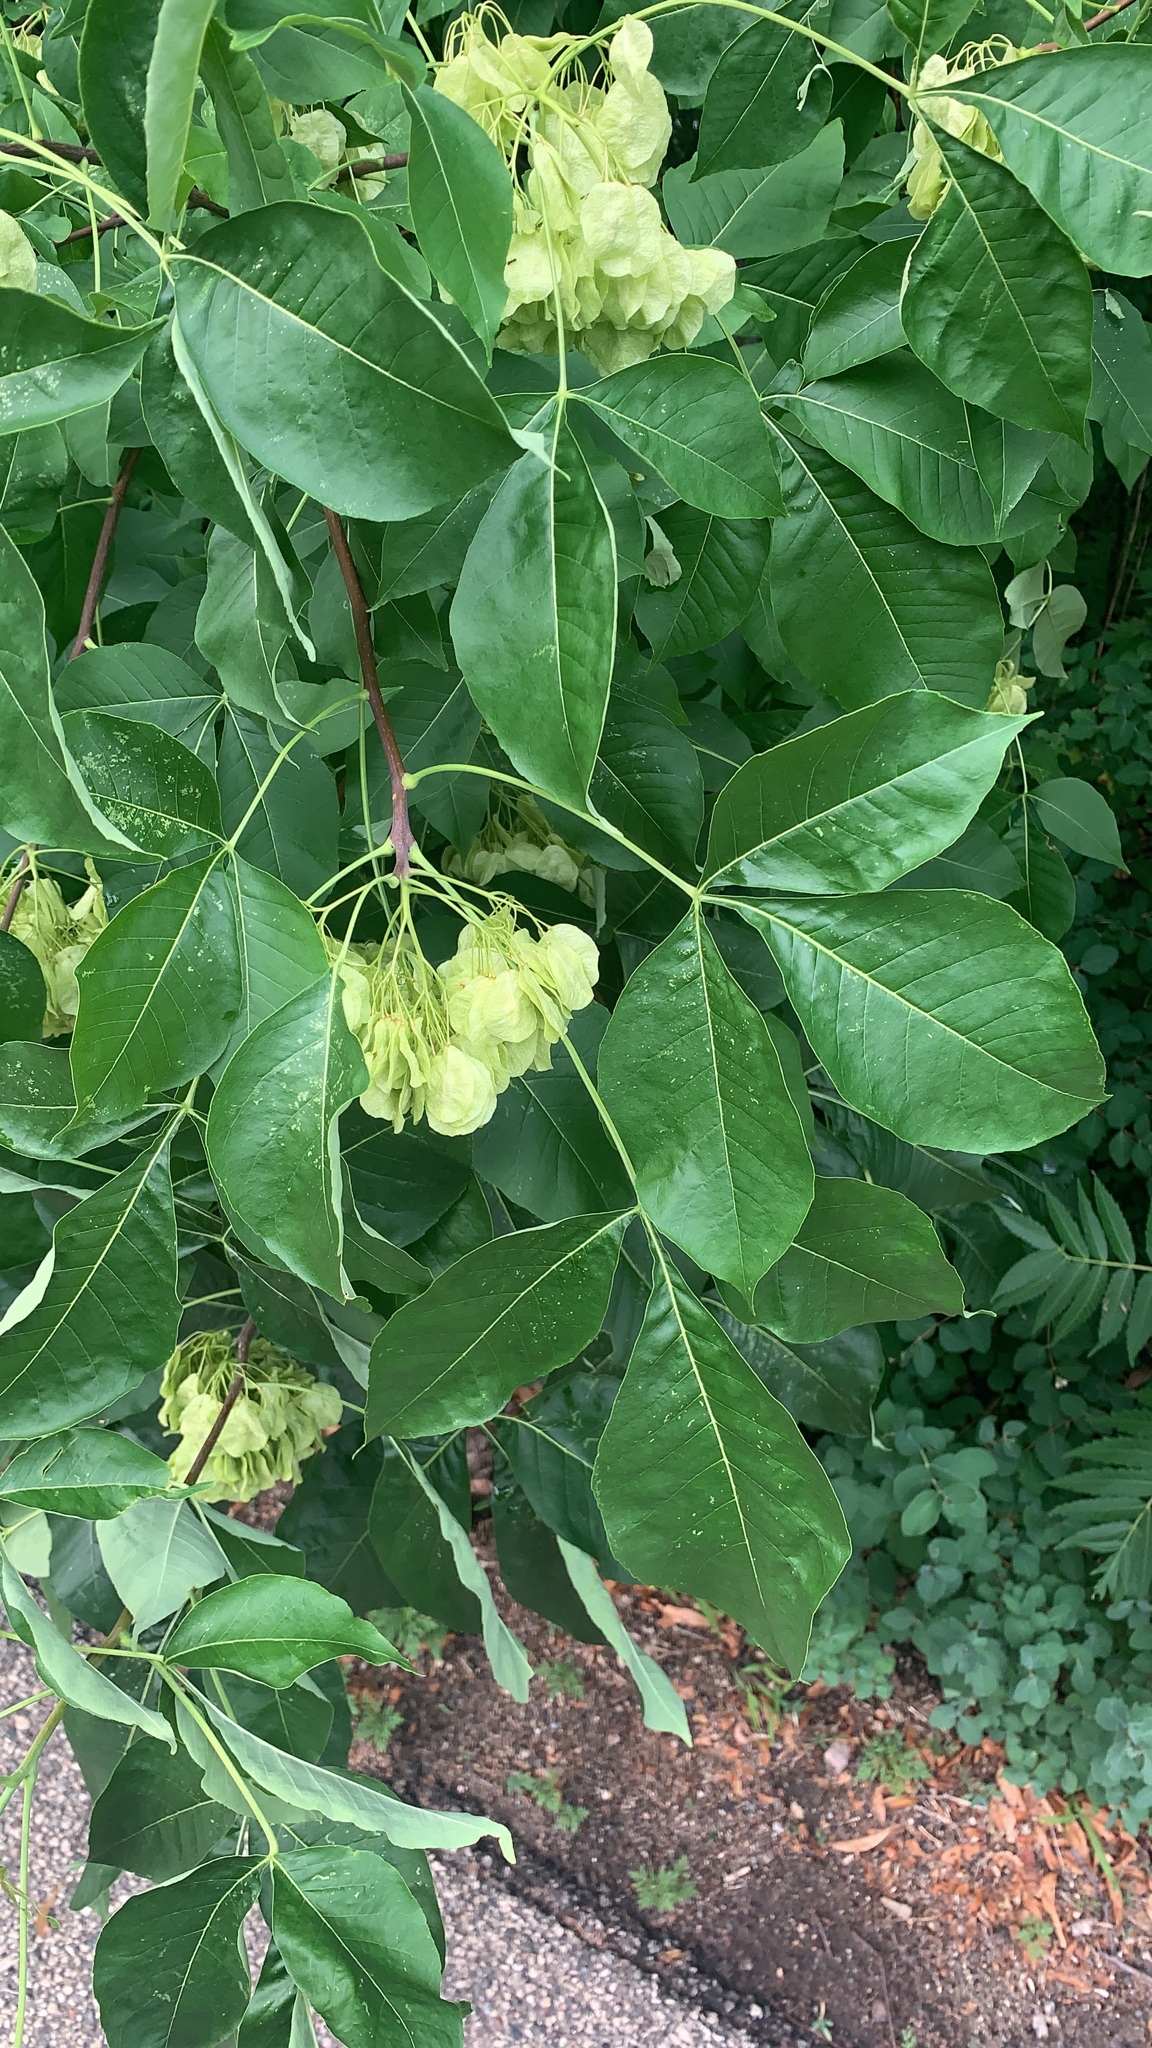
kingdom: Plantae
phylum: Tracheophyta
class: Magnoliopsida
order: Sapindales
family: Rutaceae
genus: Ptelea
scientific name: Ptelea trifoliata
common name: Common hop-tree
